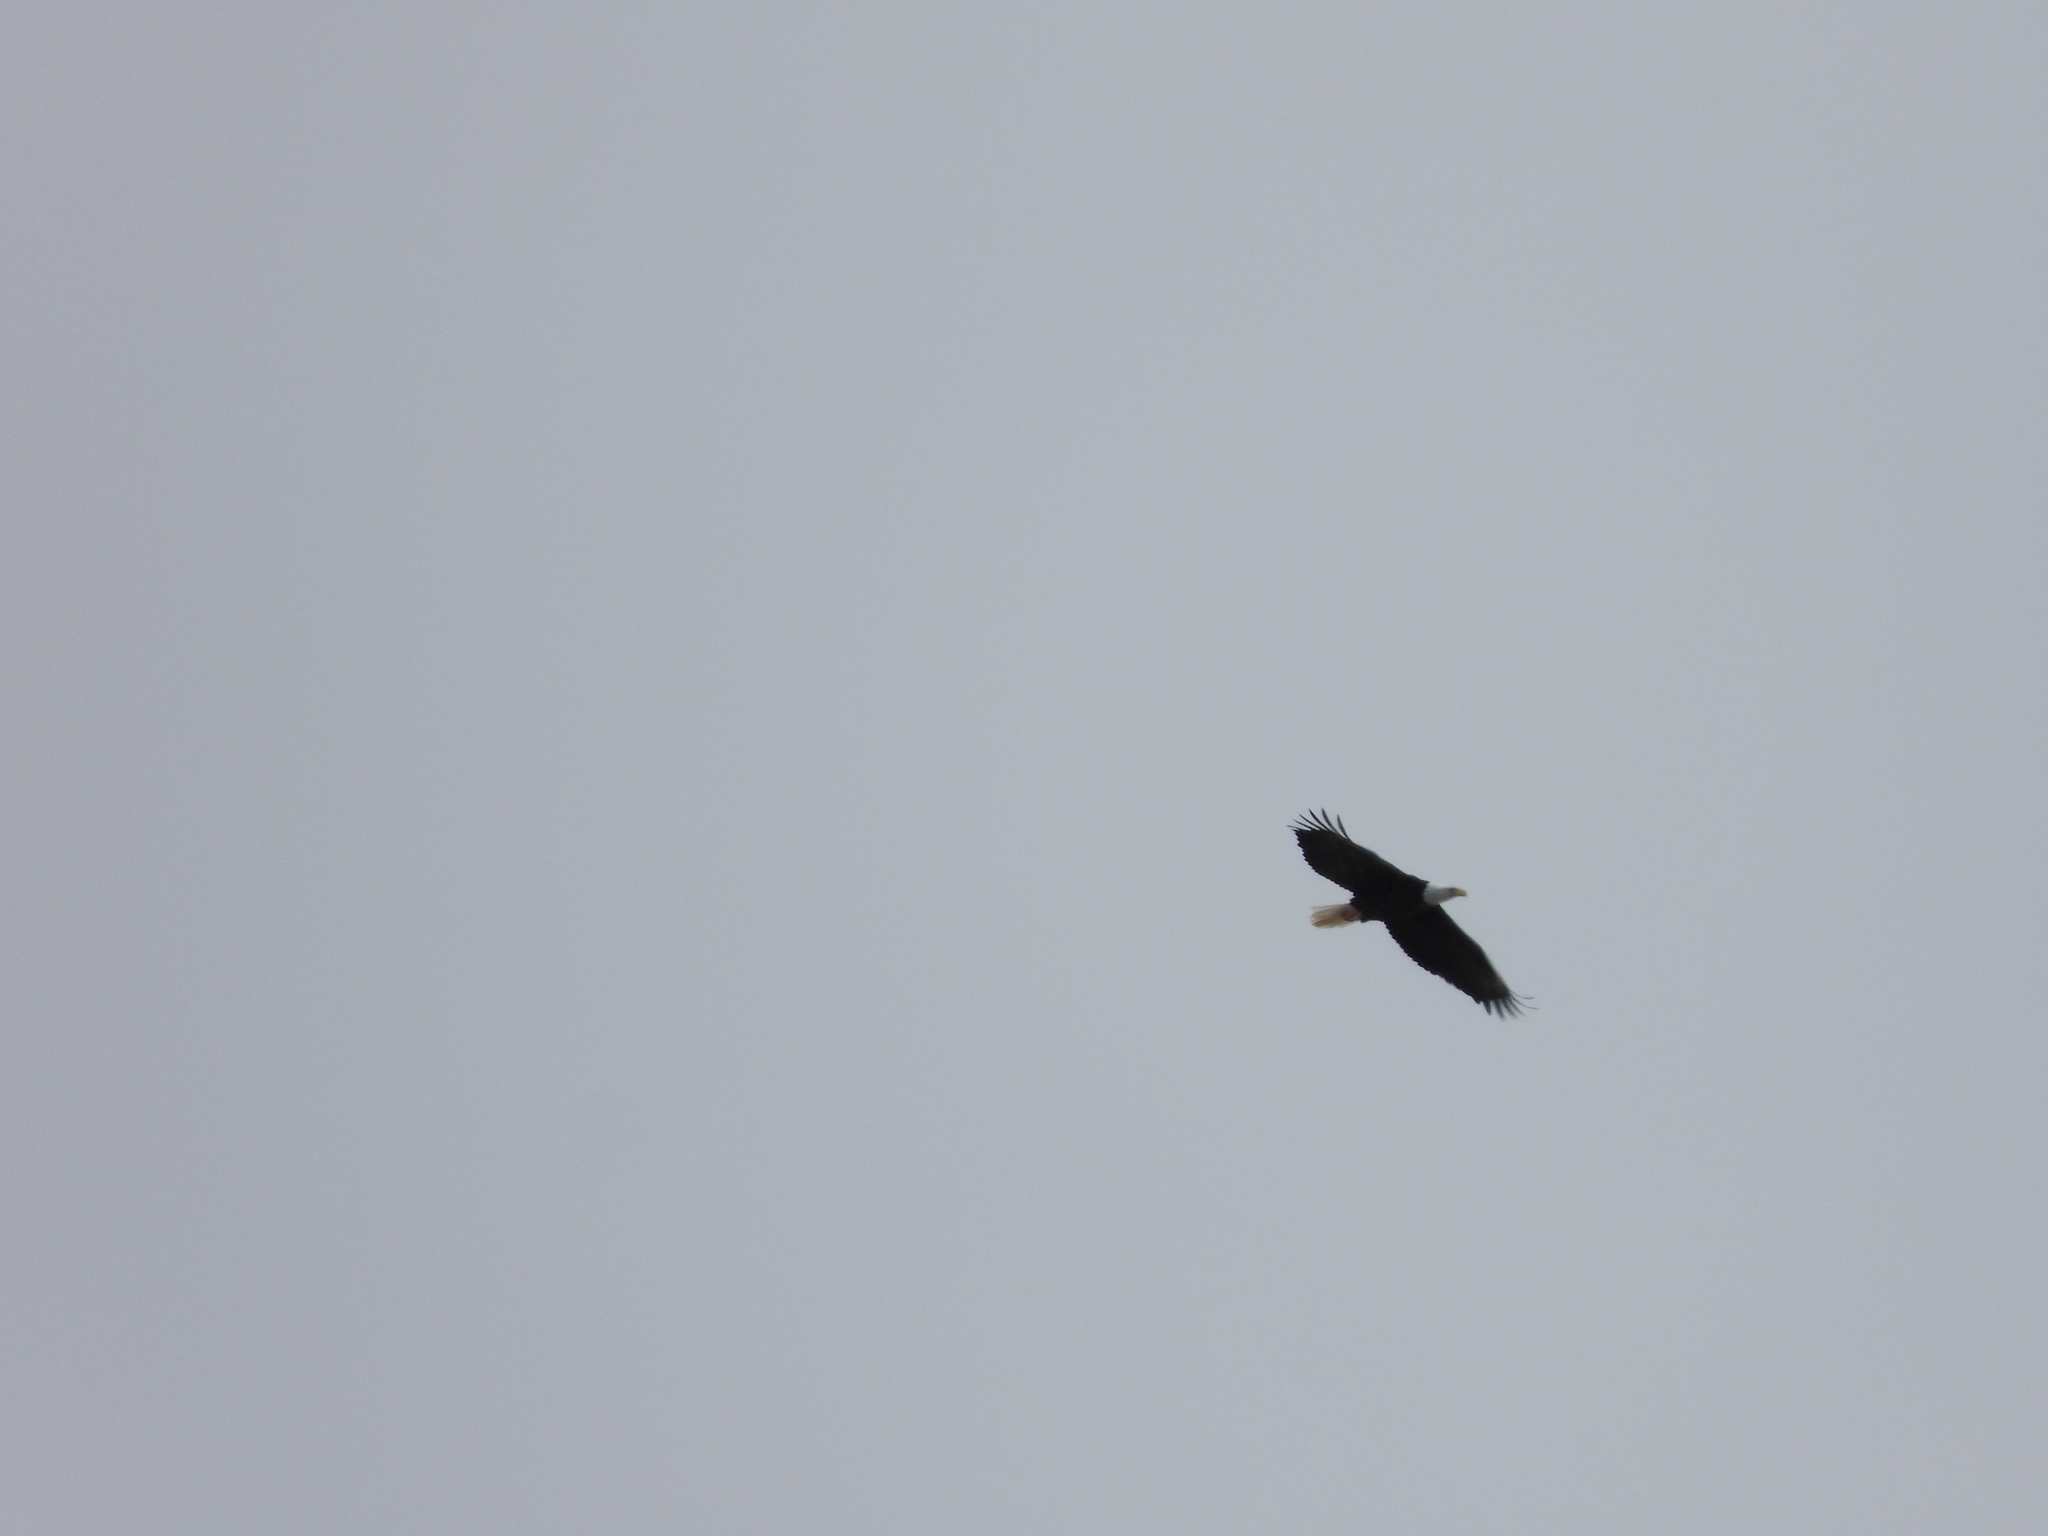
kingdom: Animalia
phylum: Chordata
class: Aves
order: Accipitriformes
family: Accipitridae
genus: Haliaeetus
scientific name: Haliaeetus leucocephalus
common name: Bald eagle
